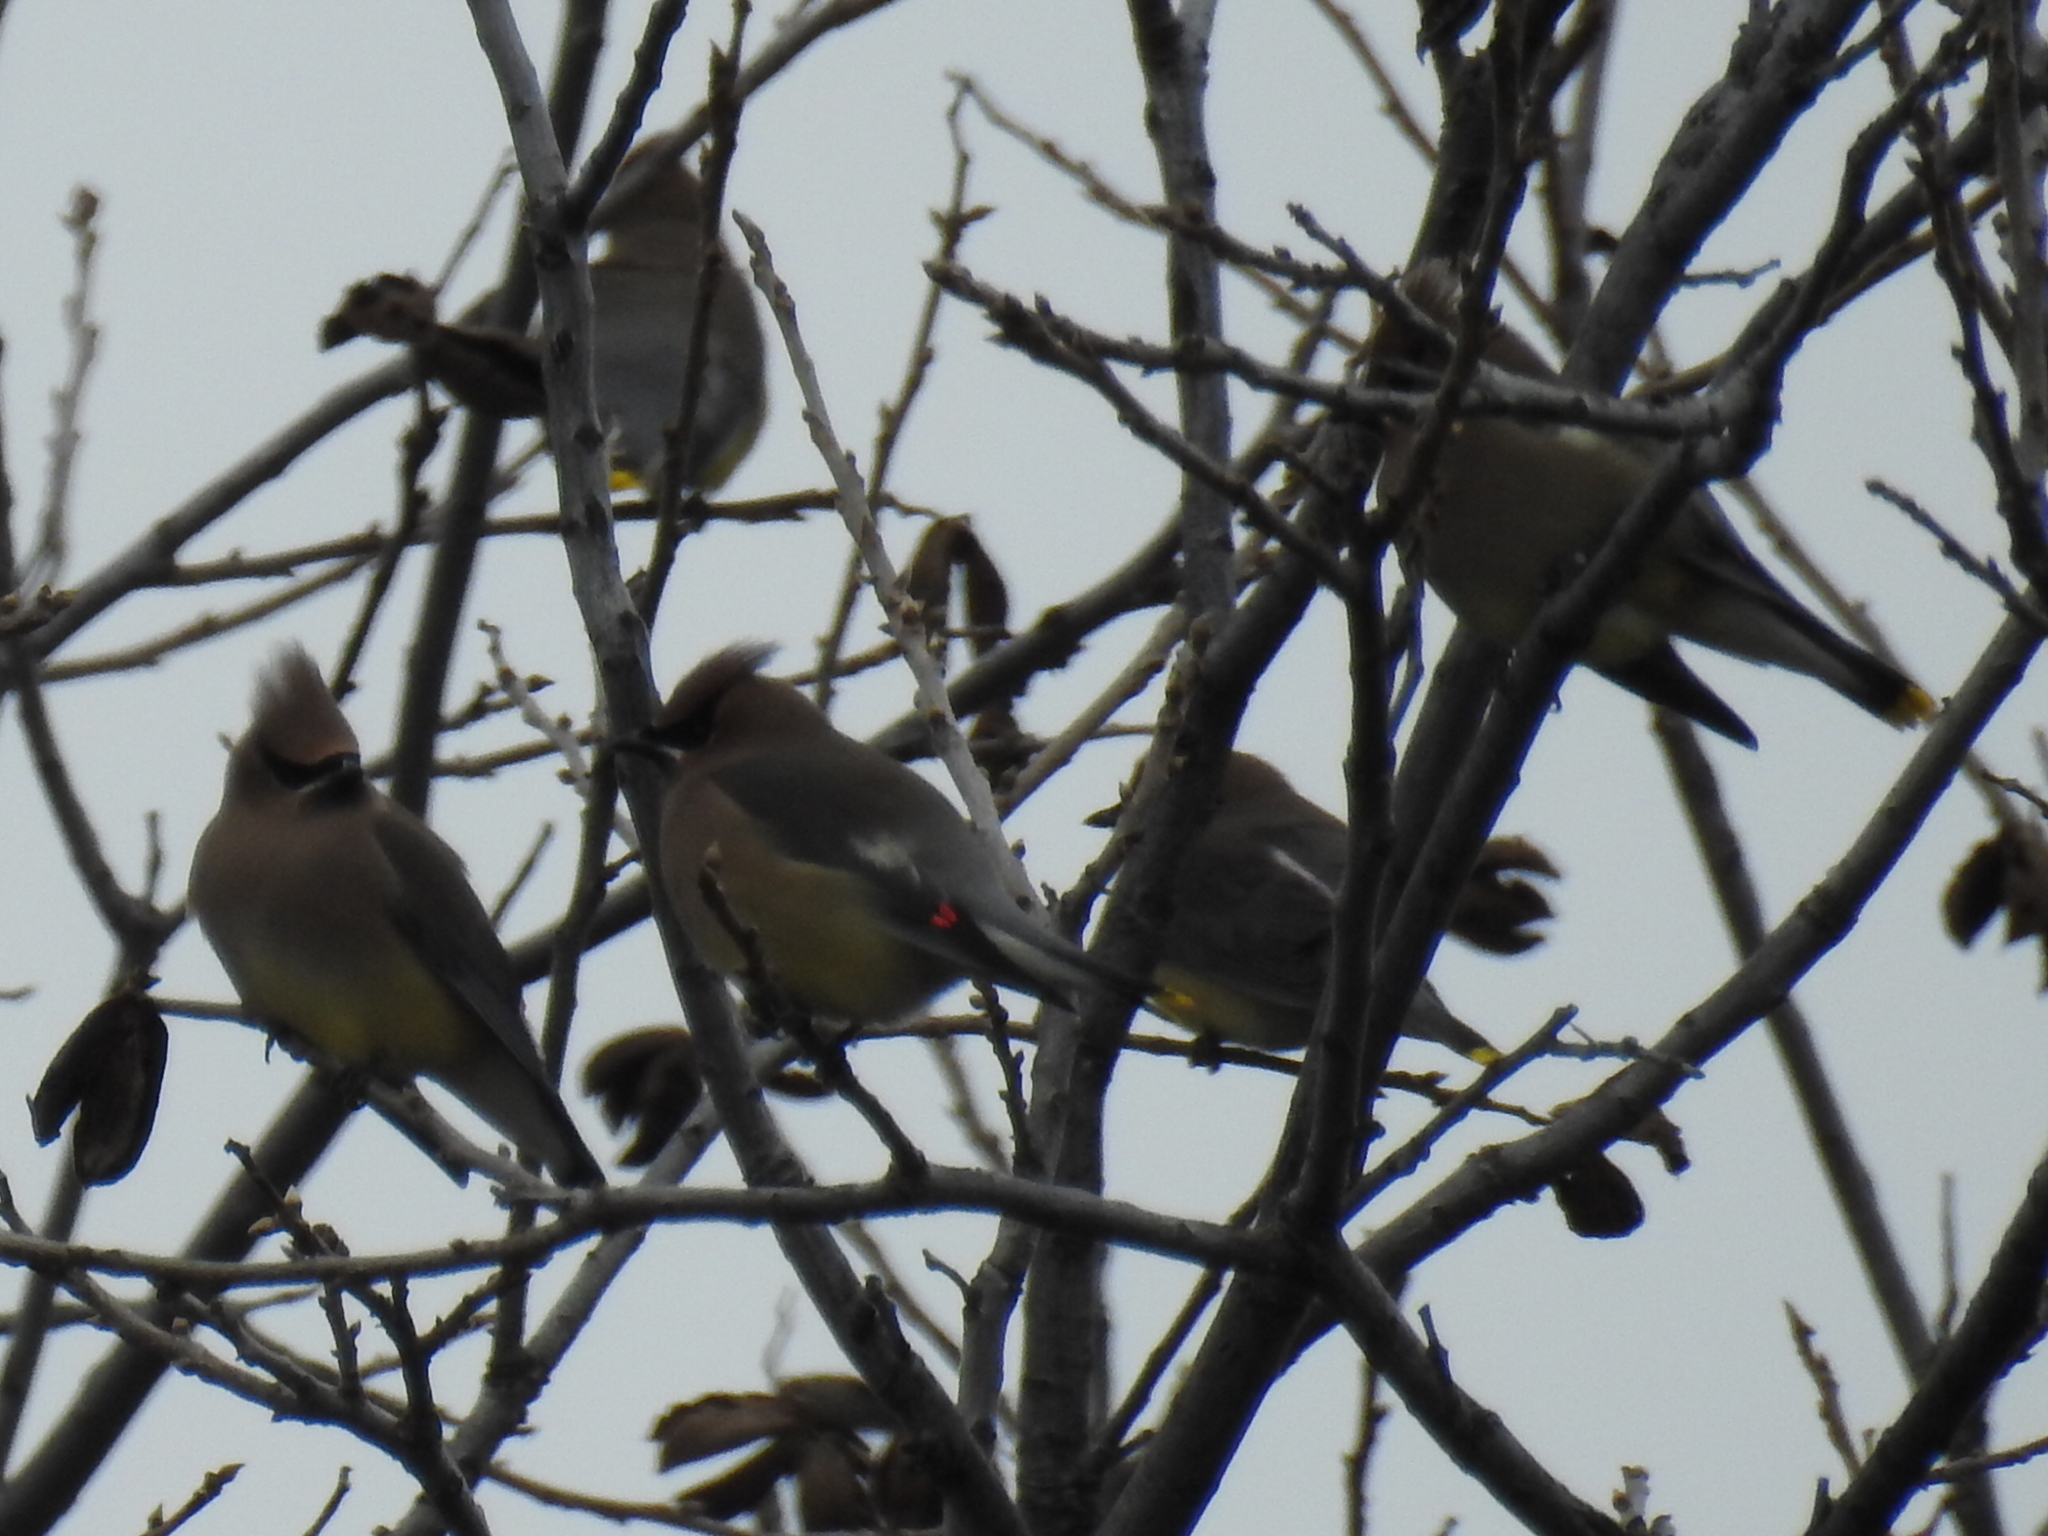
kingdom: Animalia
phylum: Chordata
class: Aves
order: Passeriformes
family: Bombycillidae
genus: Bombycilla
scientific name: Bombycilla cedrorum
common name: Cedar waxwing
